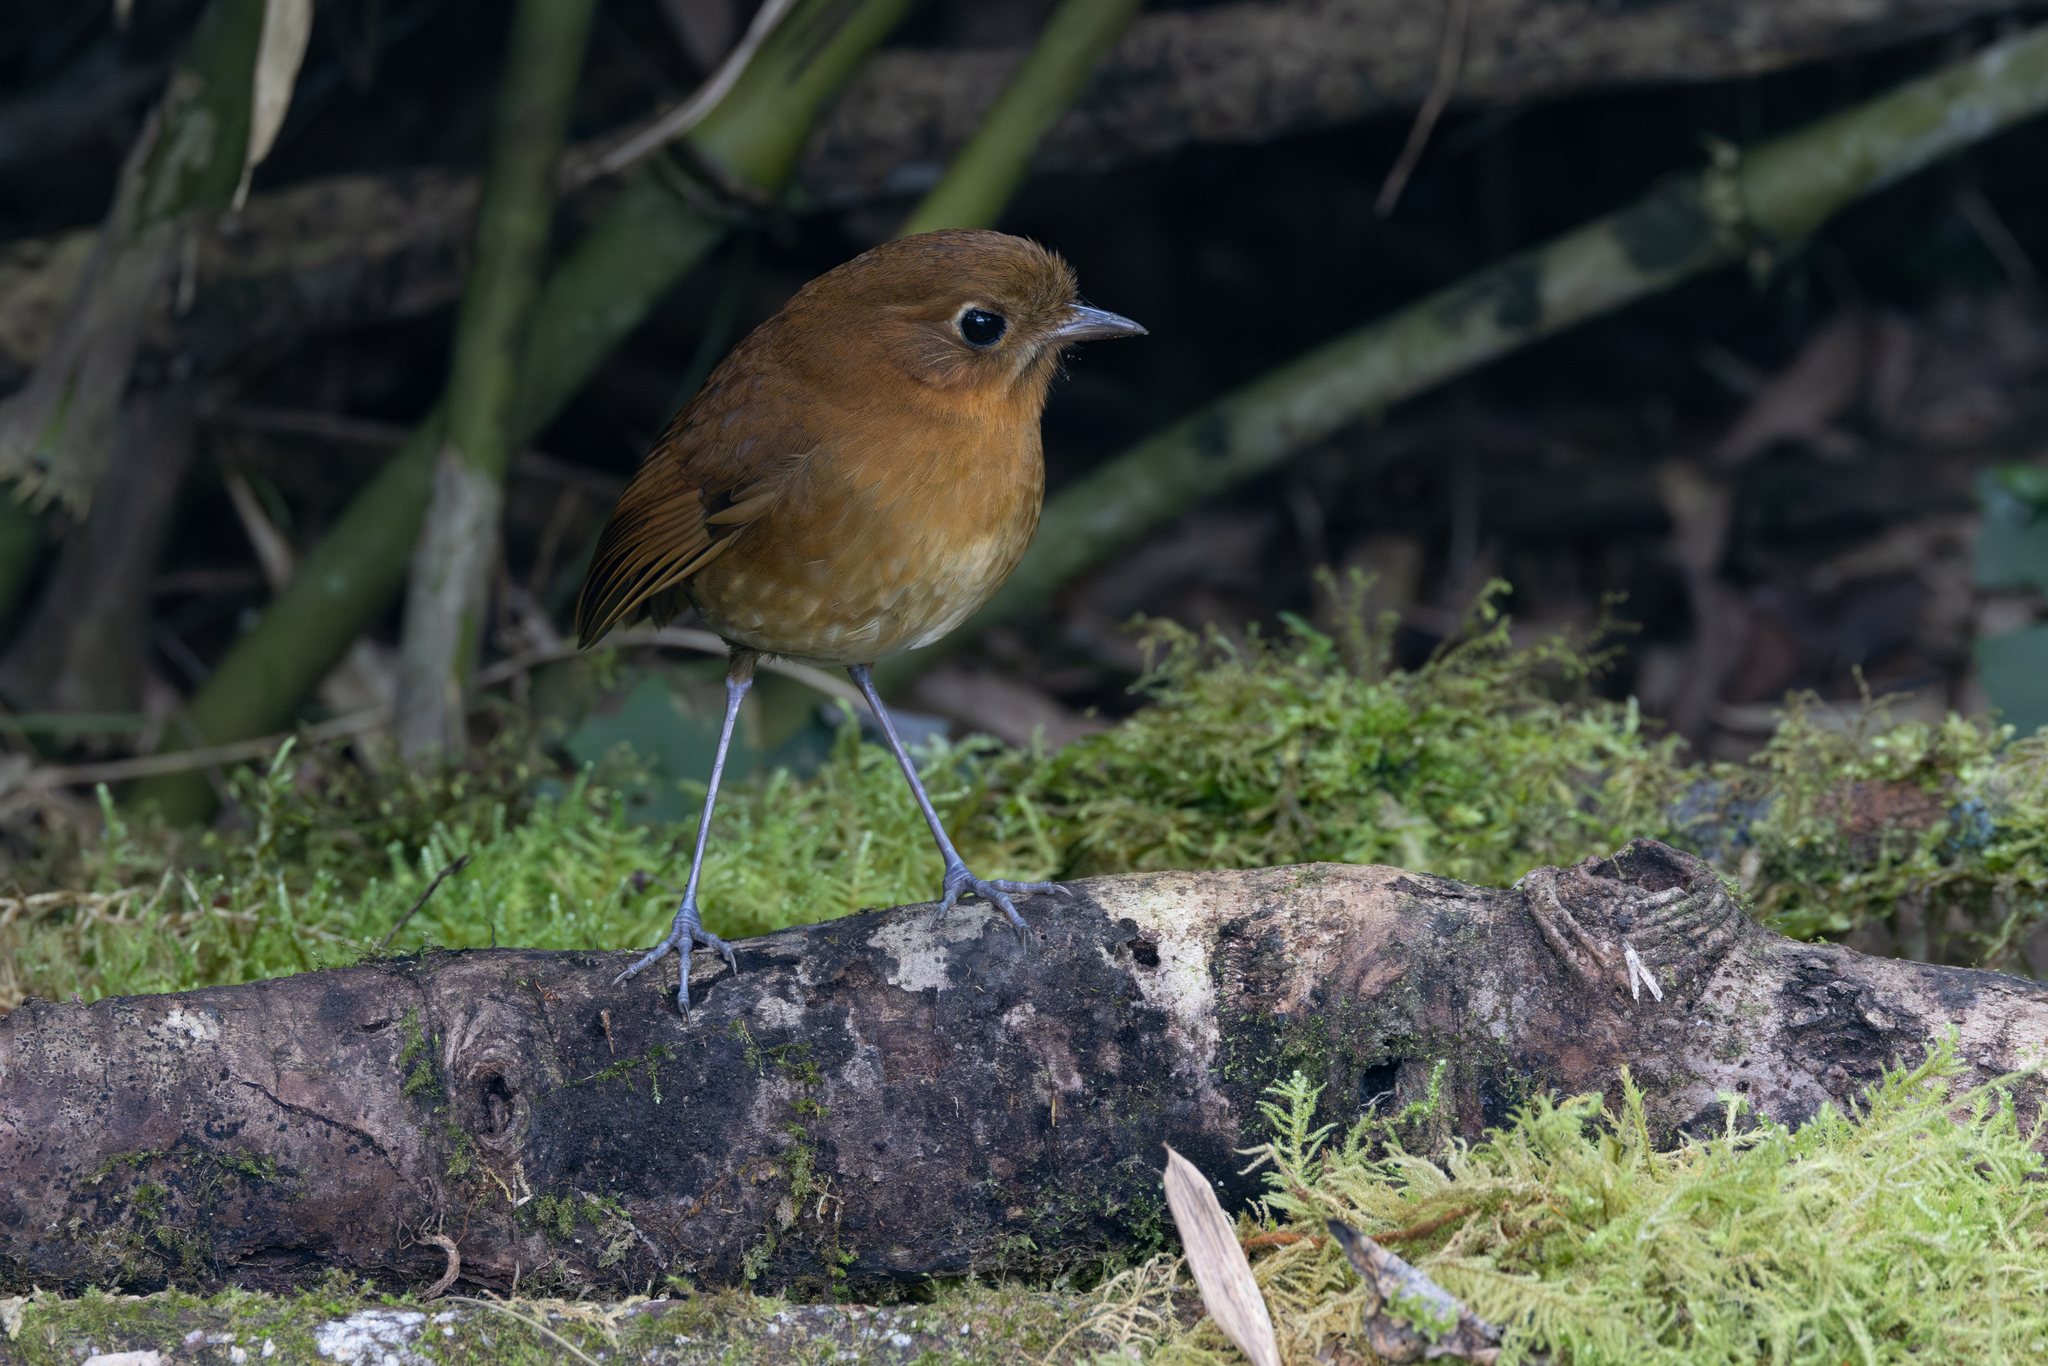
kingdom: Animalia
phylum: Chordata
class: Aves
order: Passeriformes
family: Grallariidae
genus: Grallaria
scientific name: Grallaria rufula
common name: Rufous antpitta
